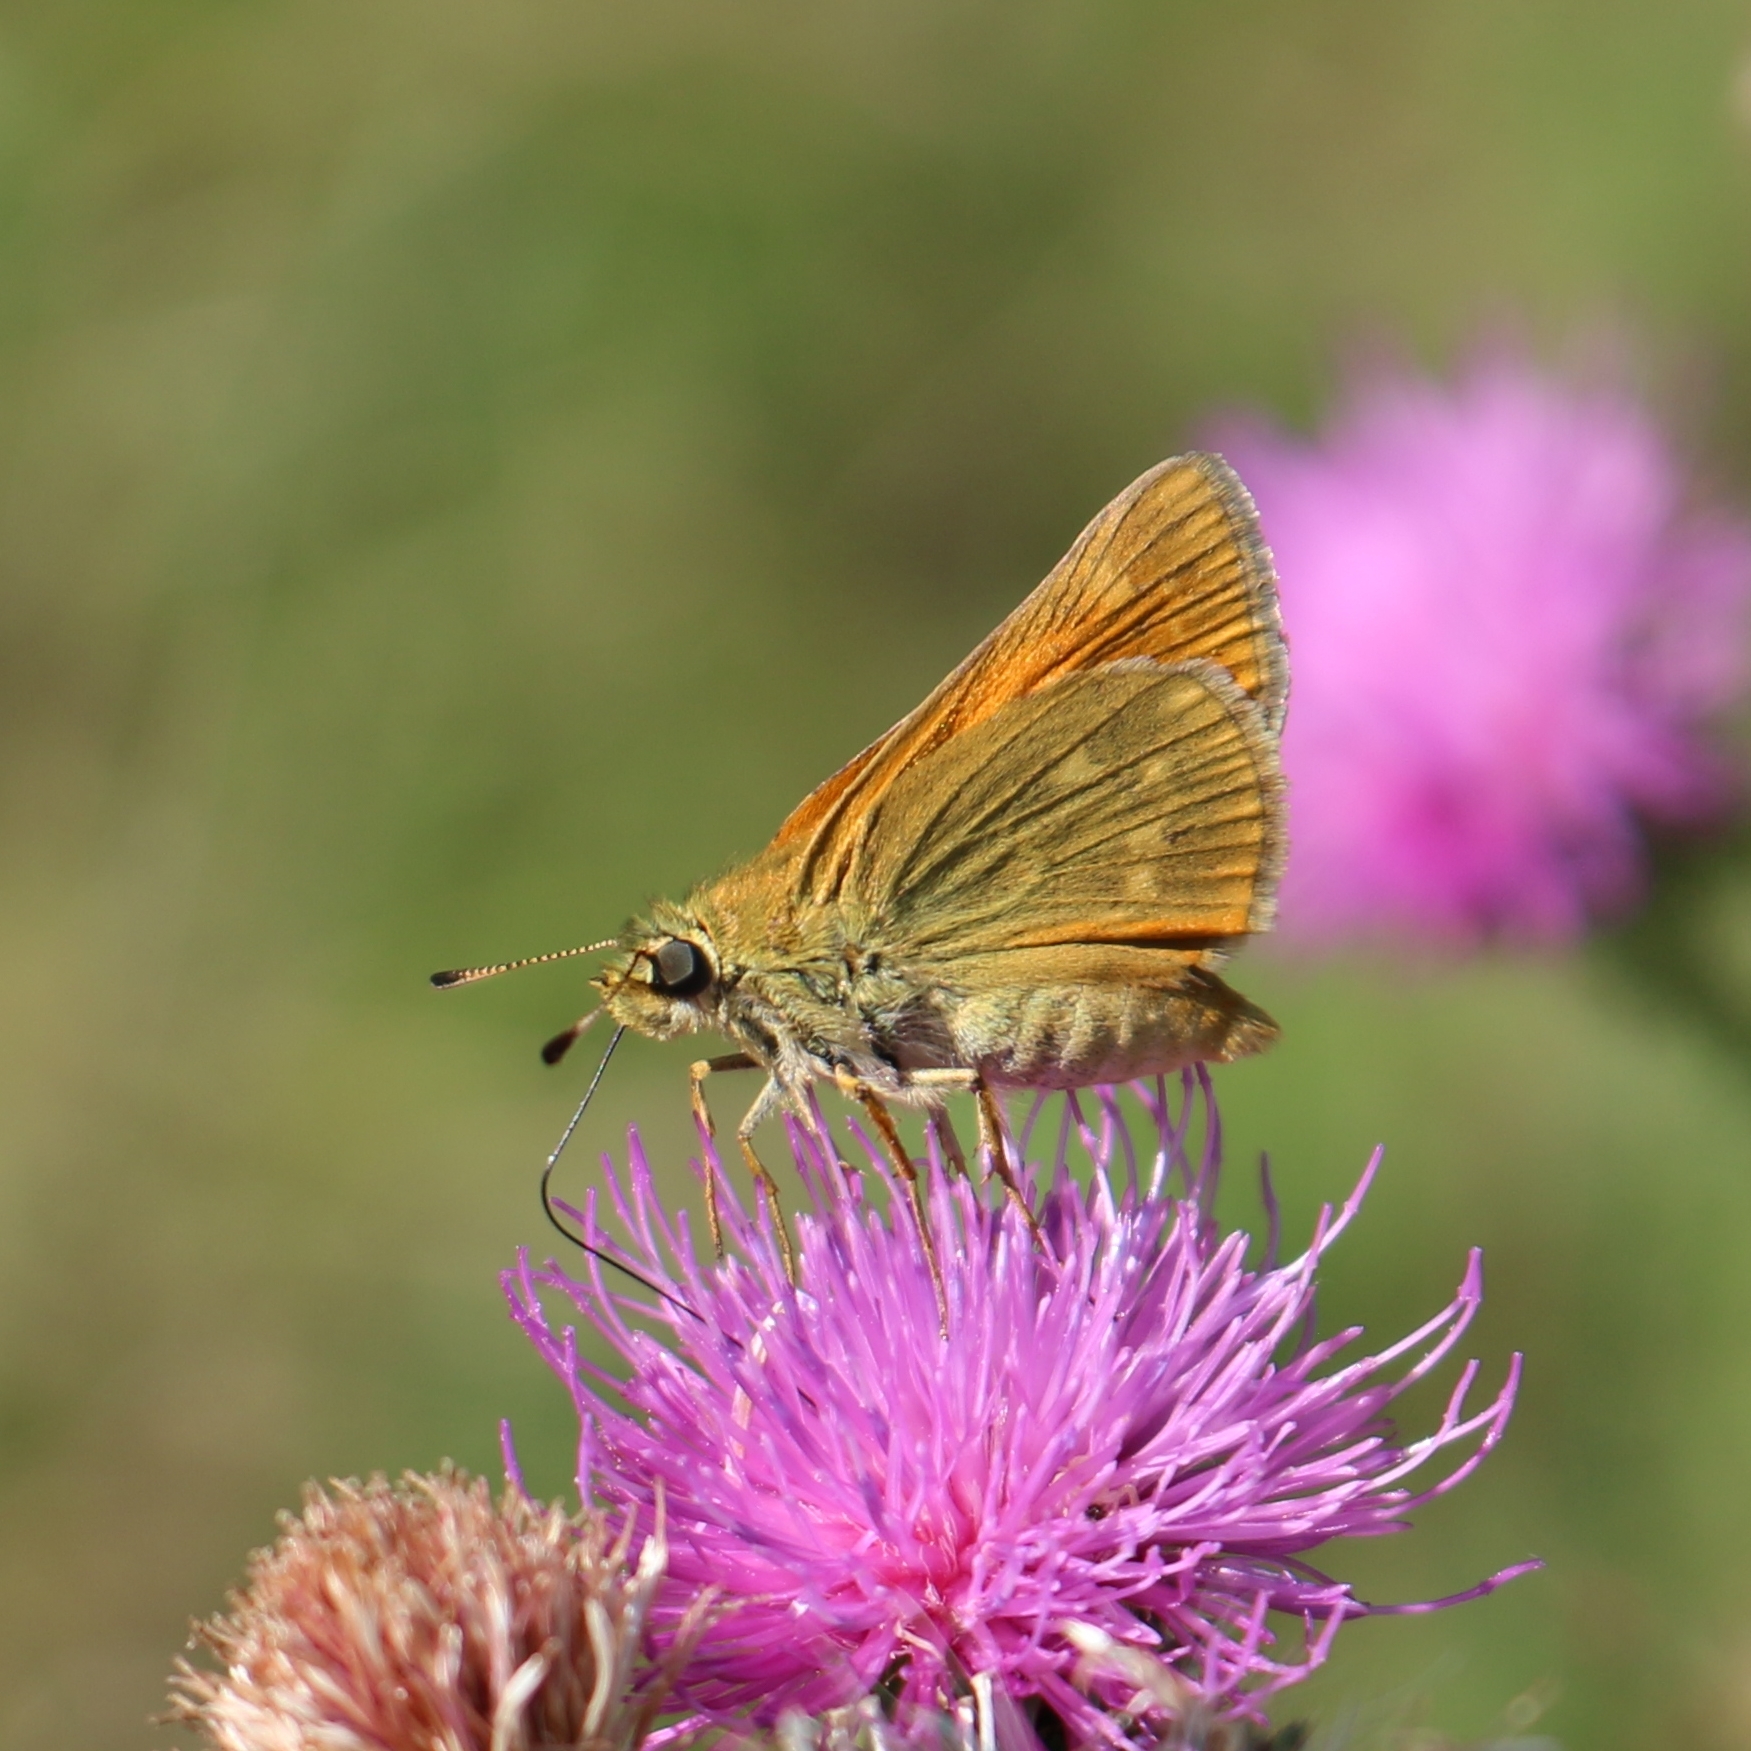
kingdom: Animalia
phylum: Arthropoda
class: Insecta
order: Lepidoptera
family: Hesperiidae
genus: Ochlodes
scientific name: Ochlodes venata
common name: Large skipper
